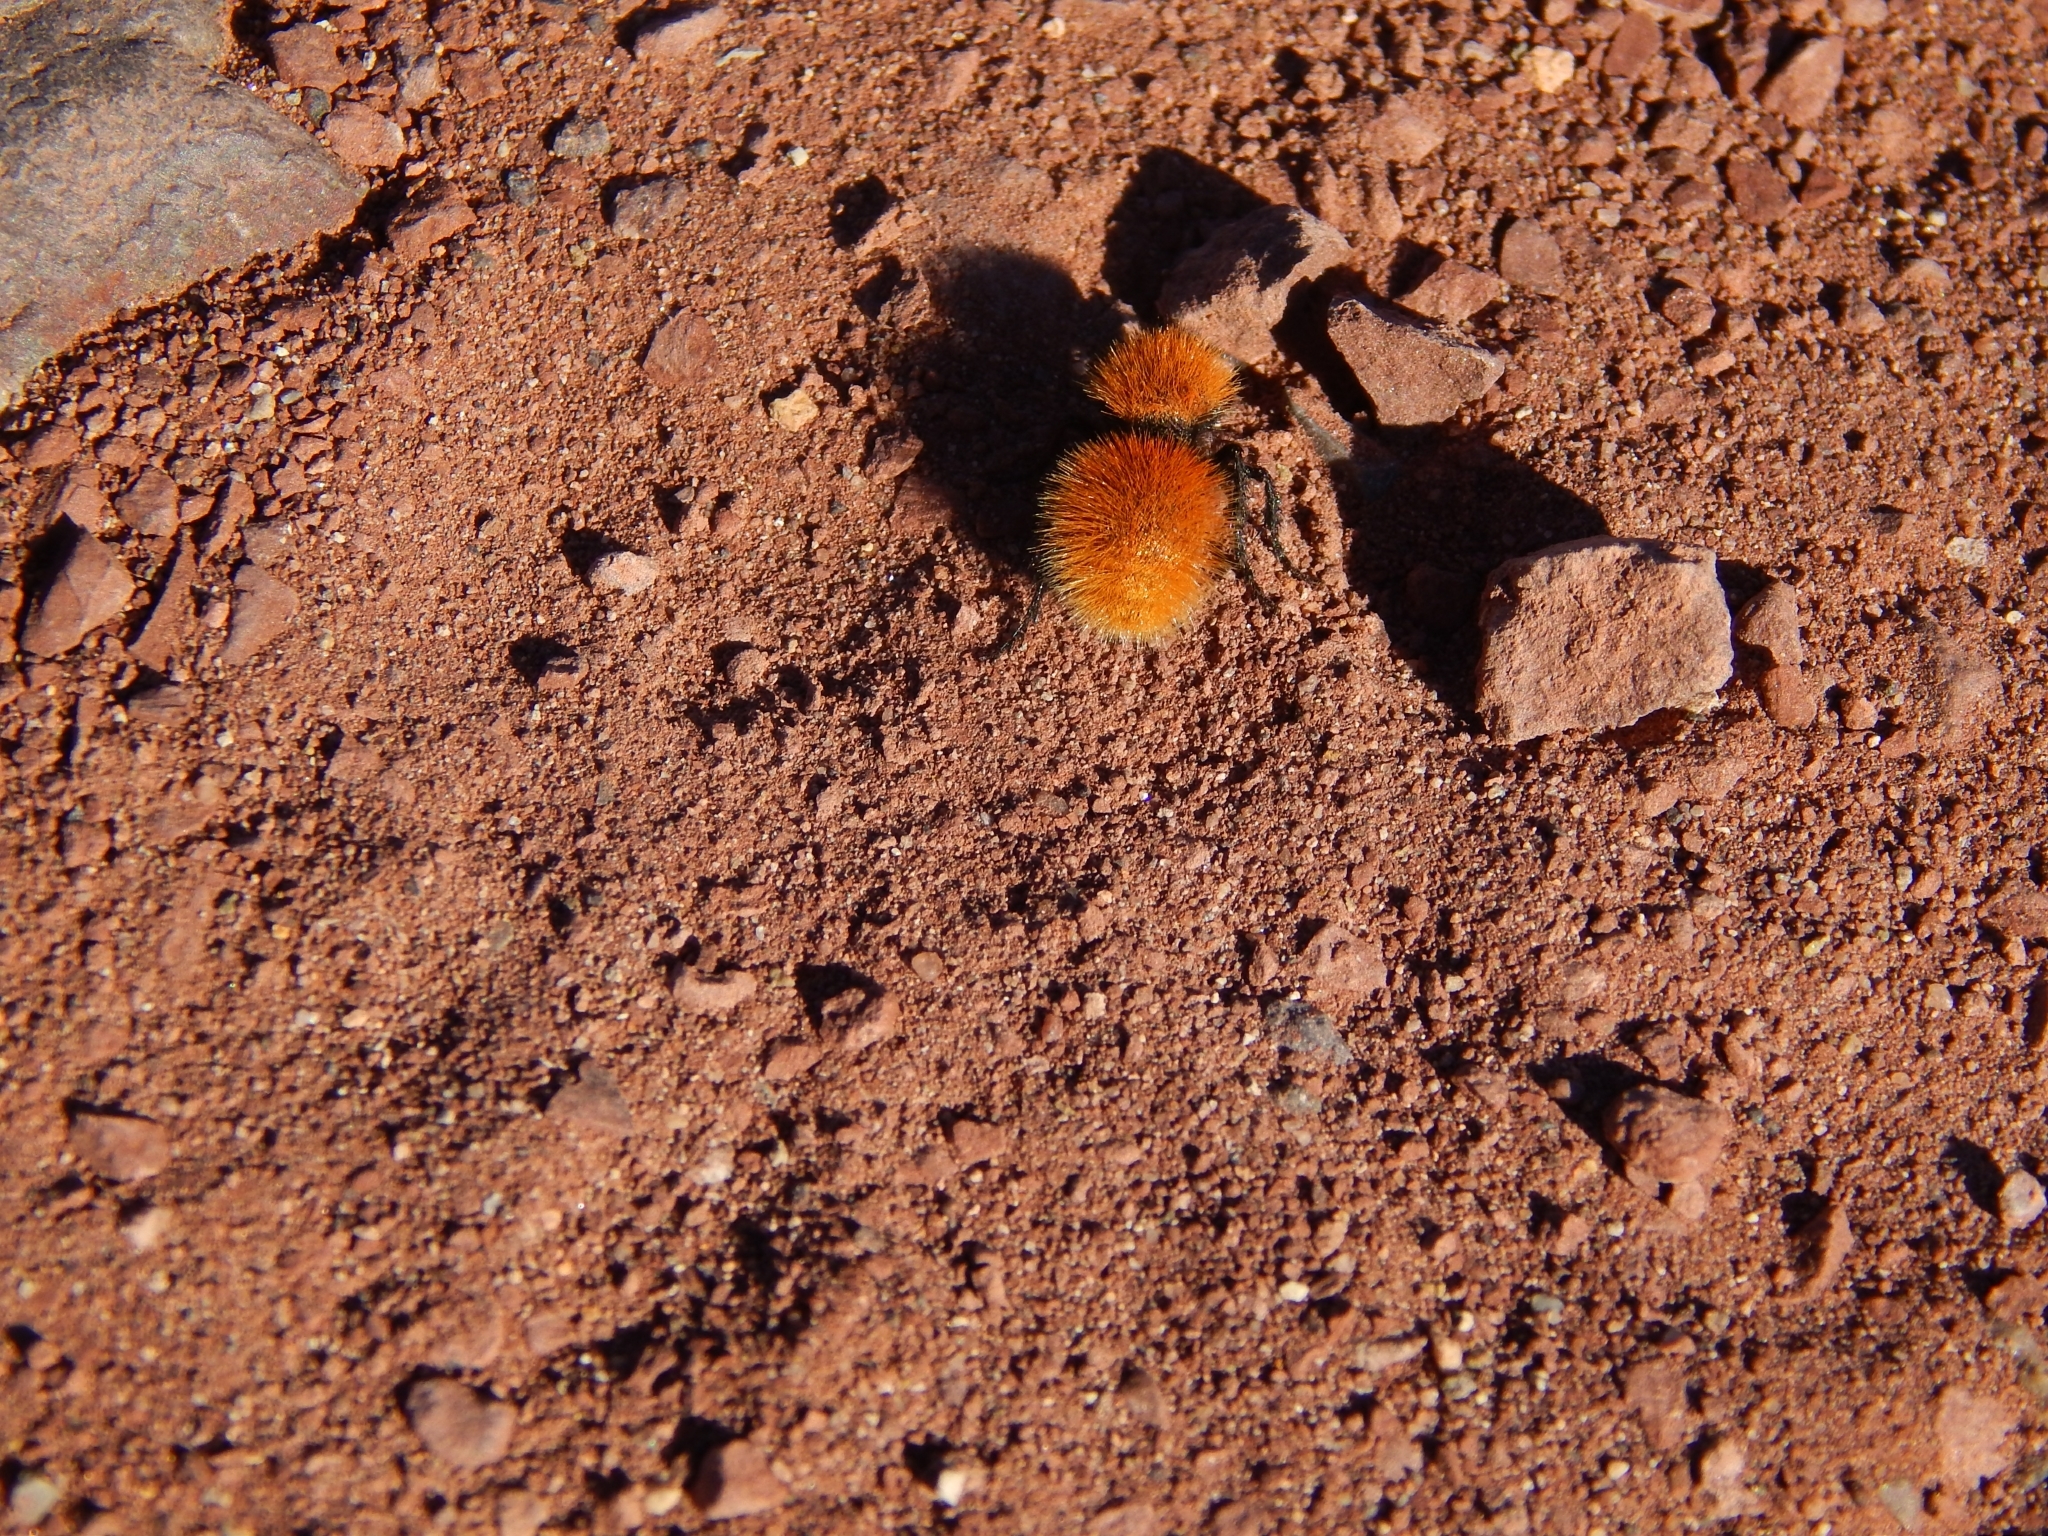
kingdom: Animalia
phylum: Arthropoda
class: Insecta
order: Hymenoptera
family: Mutillidae
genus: Dasymutilla
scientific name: Dasymutilla vestita
